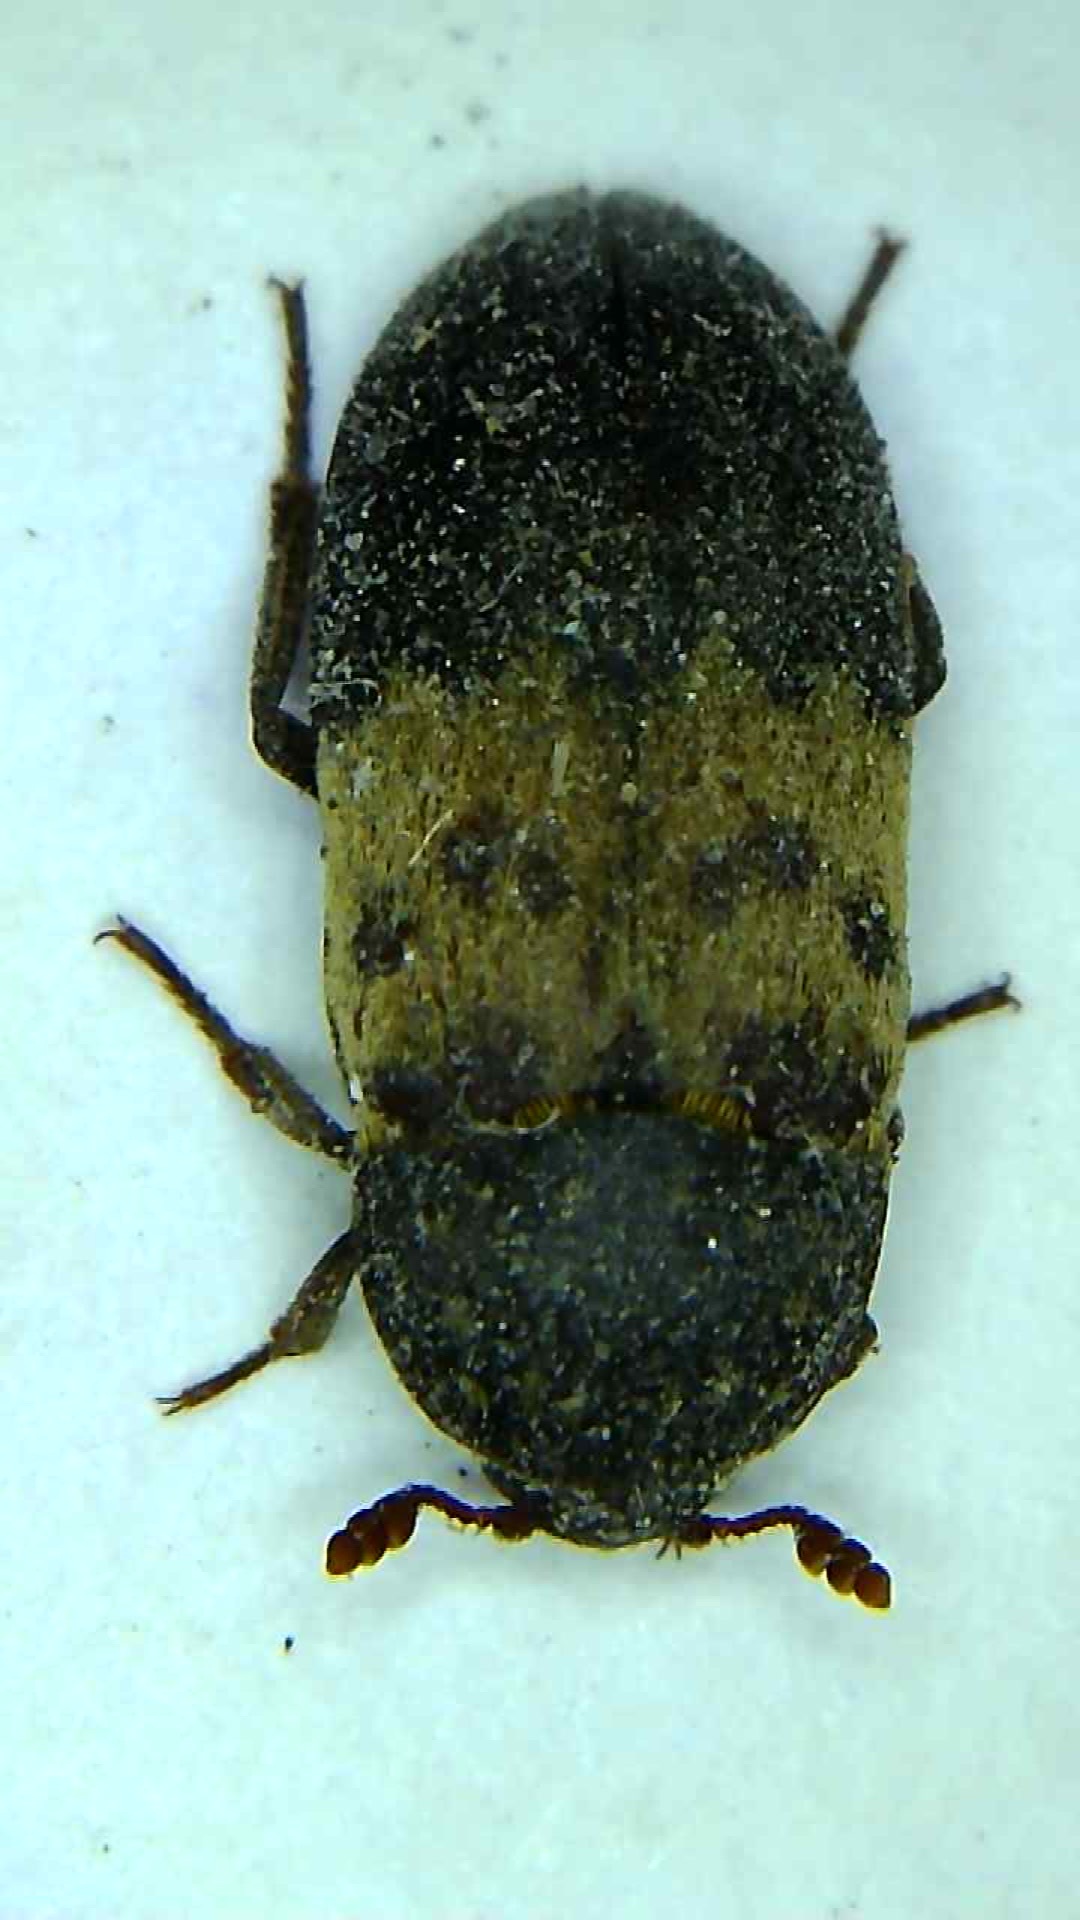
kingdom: Animalia
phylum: Arthropoda
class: Insecta
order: Coleoptera
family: Dermestidae
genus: Dermestes
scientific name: Dermestes lardarius
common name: Larder beetle
